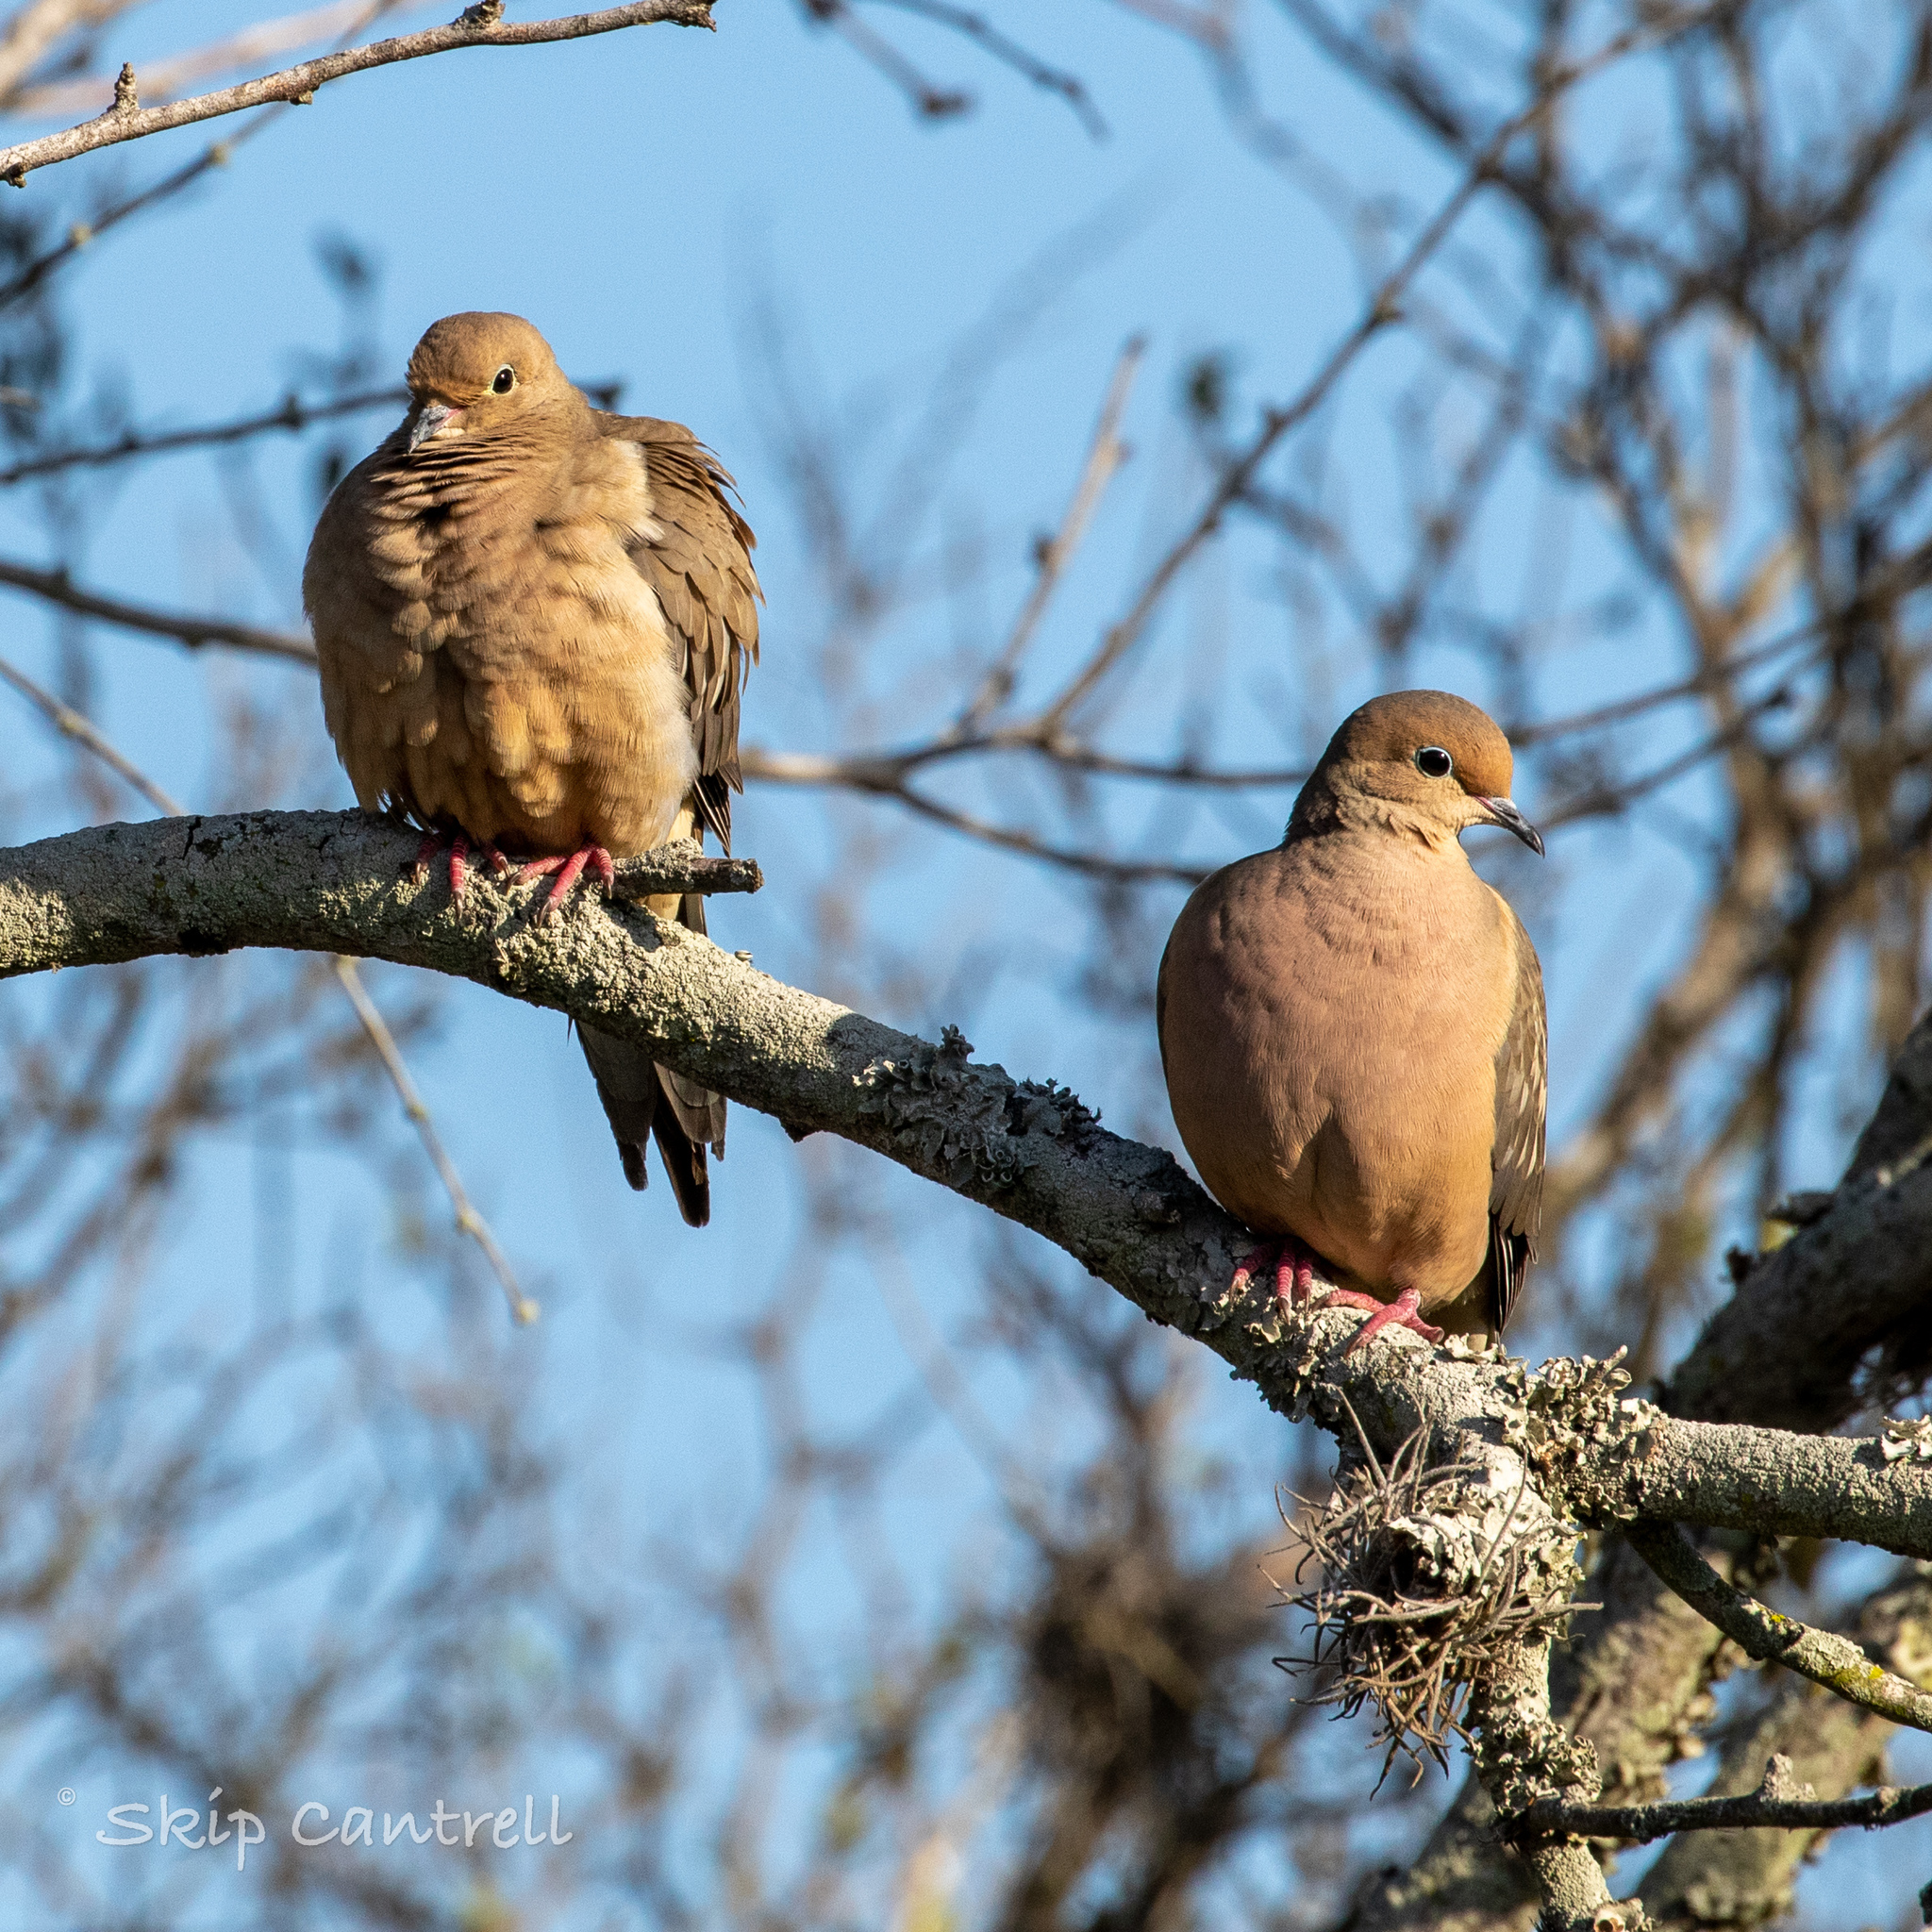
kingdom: Animalia
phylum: Chordata
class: Aves
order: Columbiformes
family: Columbidae
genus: Zenaida
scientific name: Zenaida macroura
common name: Mourning dove
